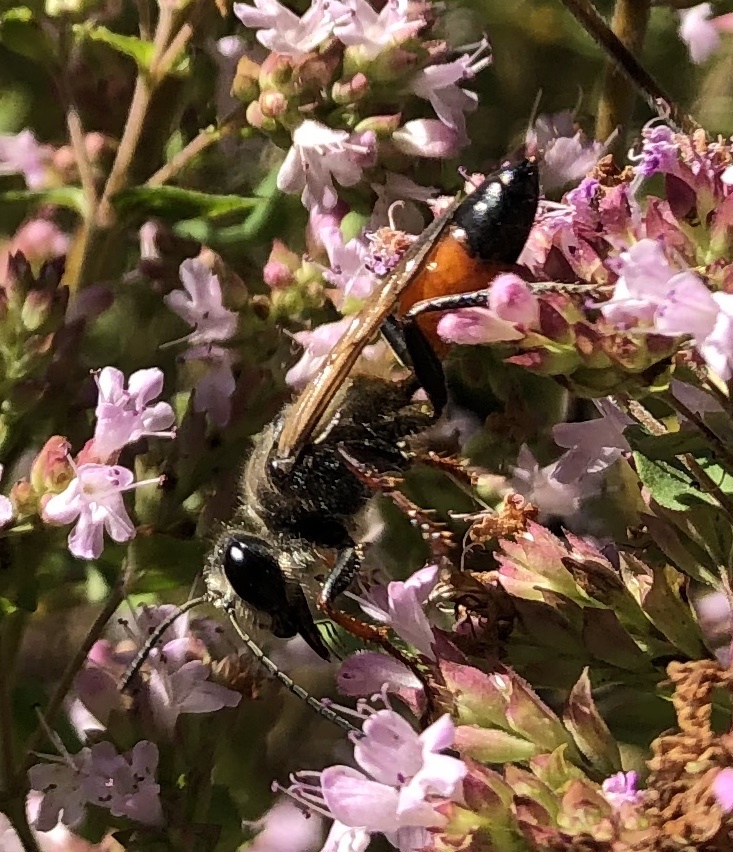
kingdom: Animalia
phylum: Arthropoda
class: Insecta
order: Hymenoptera
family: Sphecidae
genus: Sphex
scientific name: Sphex funerarius
